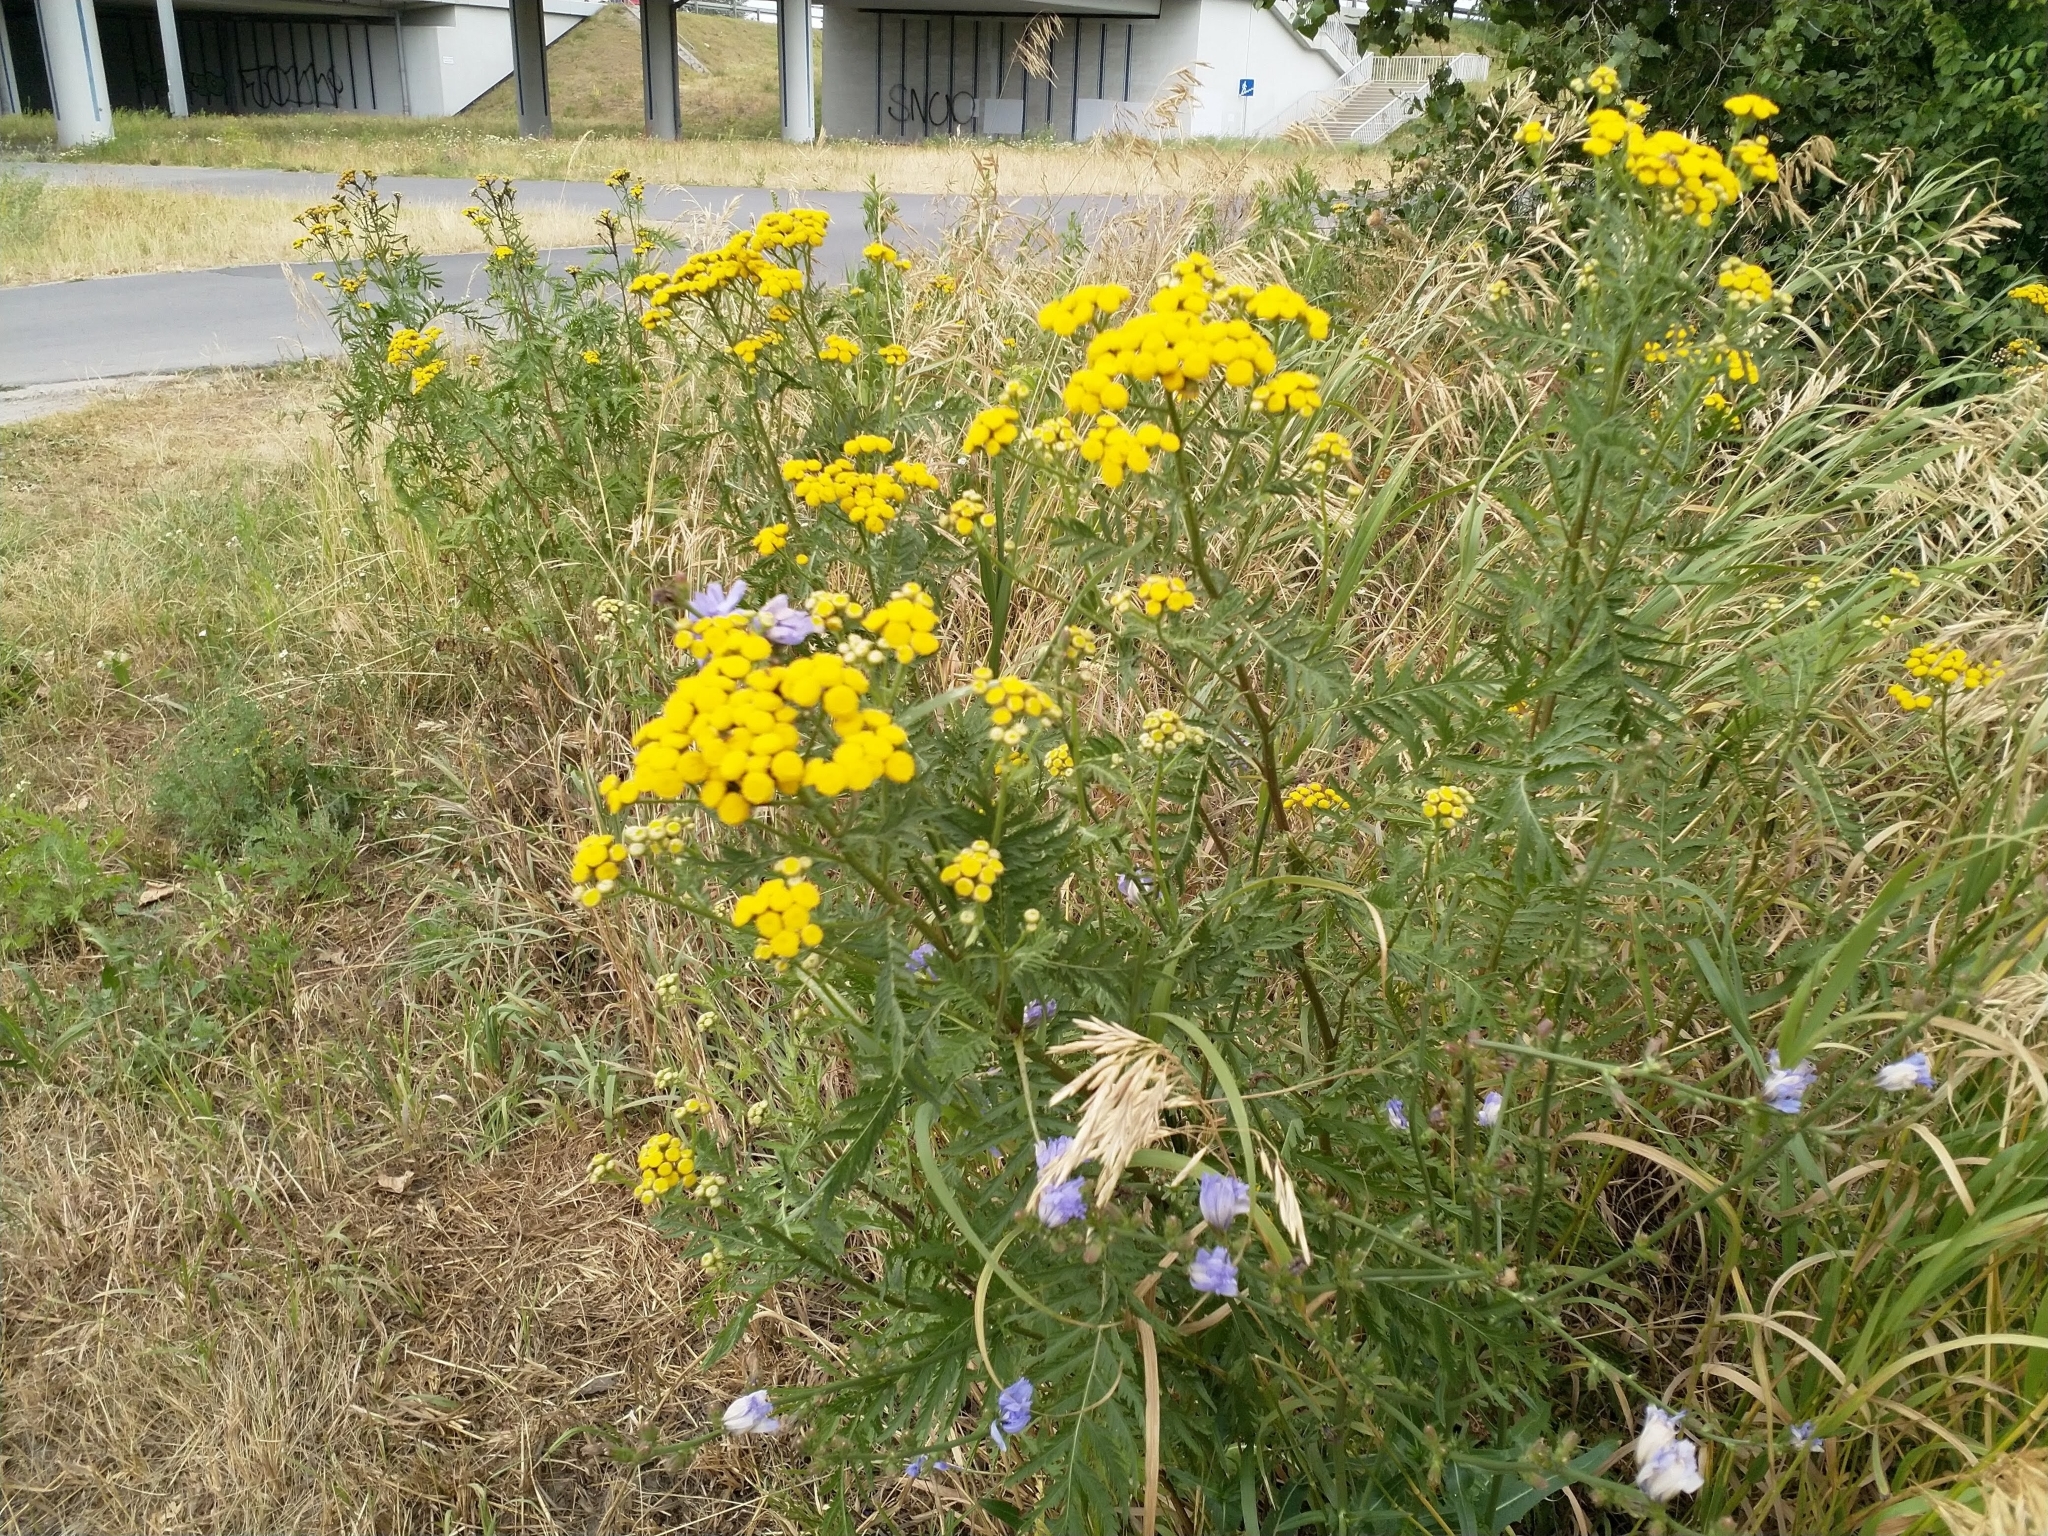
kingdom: Plantae
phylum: Tracheophyta
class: Magnoliopsida
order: Asterales
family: Asteraceae
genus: Tanacetum
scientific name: Tanacetum vulgare
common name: Common tansy
